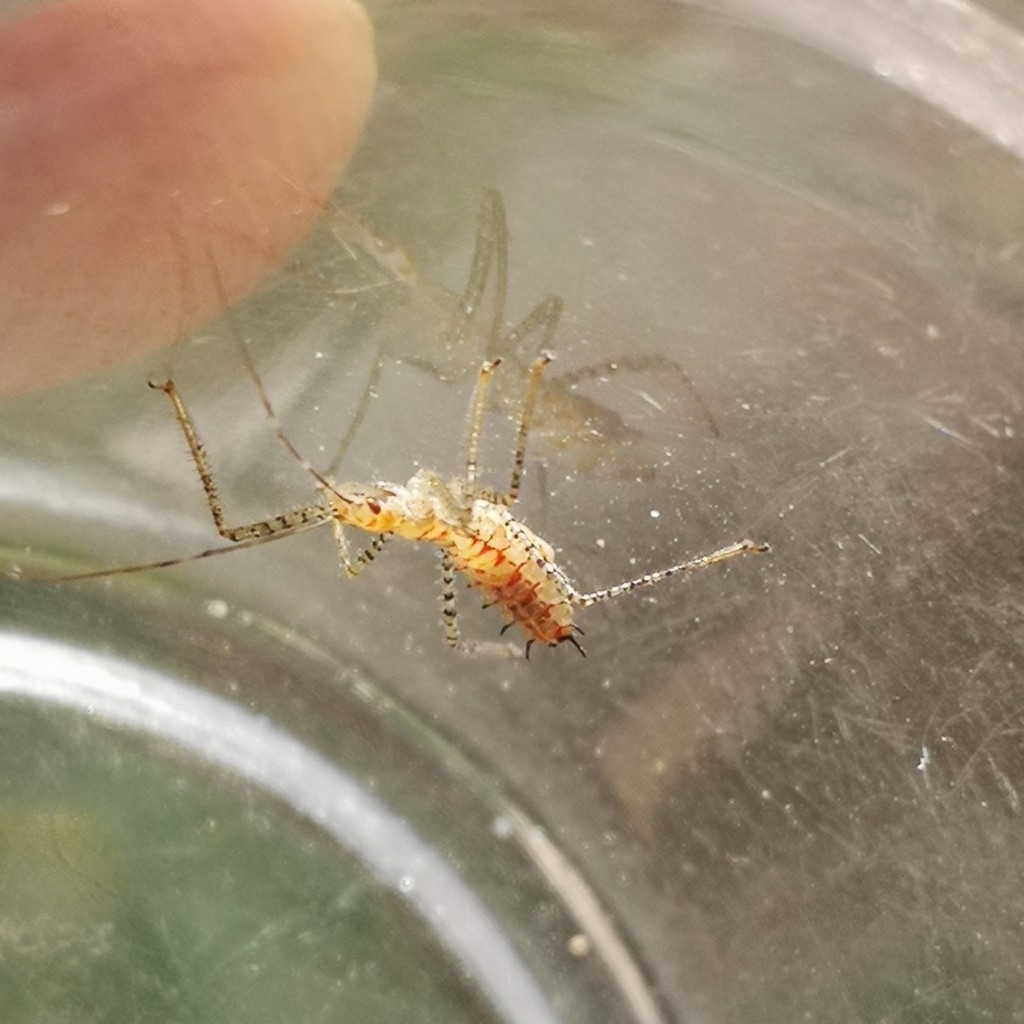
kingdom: Animalia
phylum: Arthropoda
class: Insecta
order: Hemiptera
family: Reduviidae
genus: Zelus
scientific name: Zelus renardii
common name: Assassin bug
